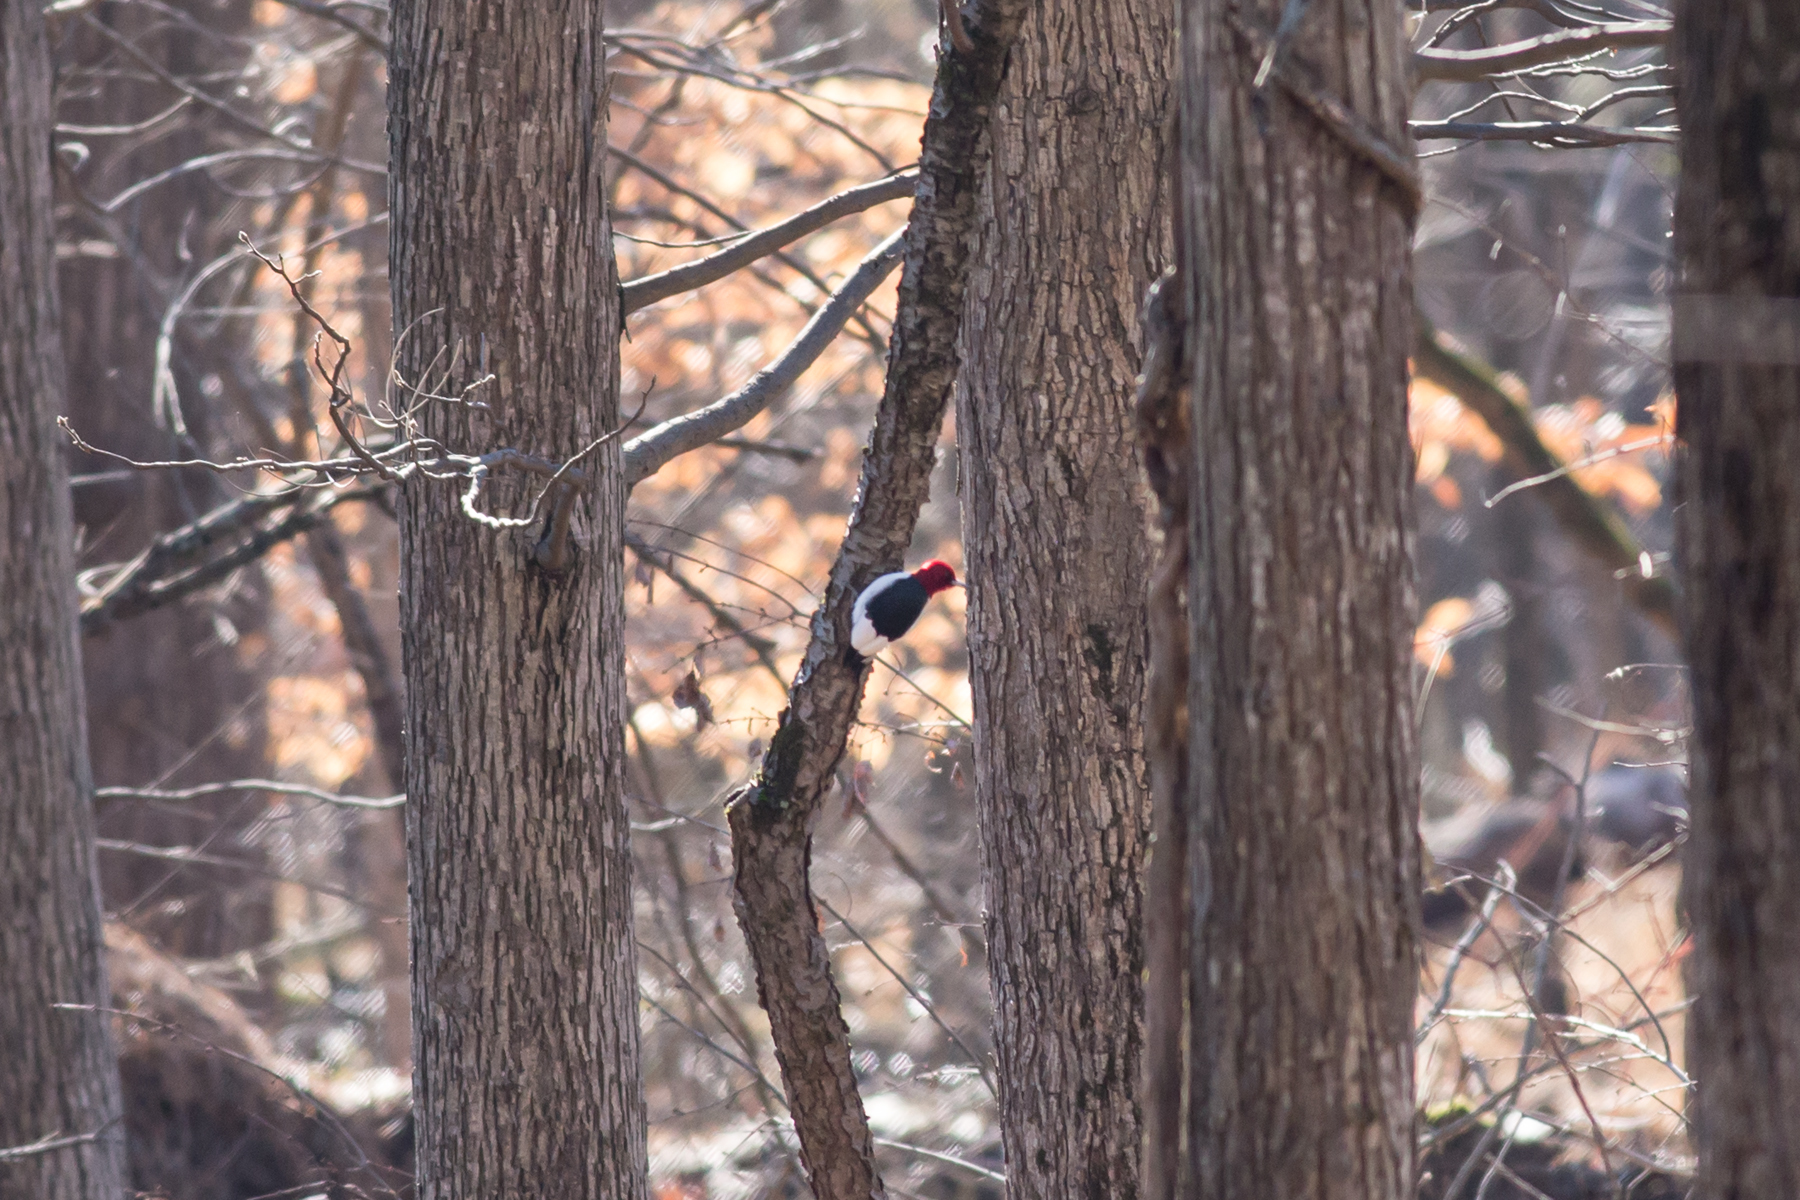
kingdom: Animalia
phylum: Chordata
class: Aves
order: Piciformes
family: Picidae
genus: Melanerpes
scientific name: Melanerpes erythrocephalus
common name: Red-headed woodpecker
